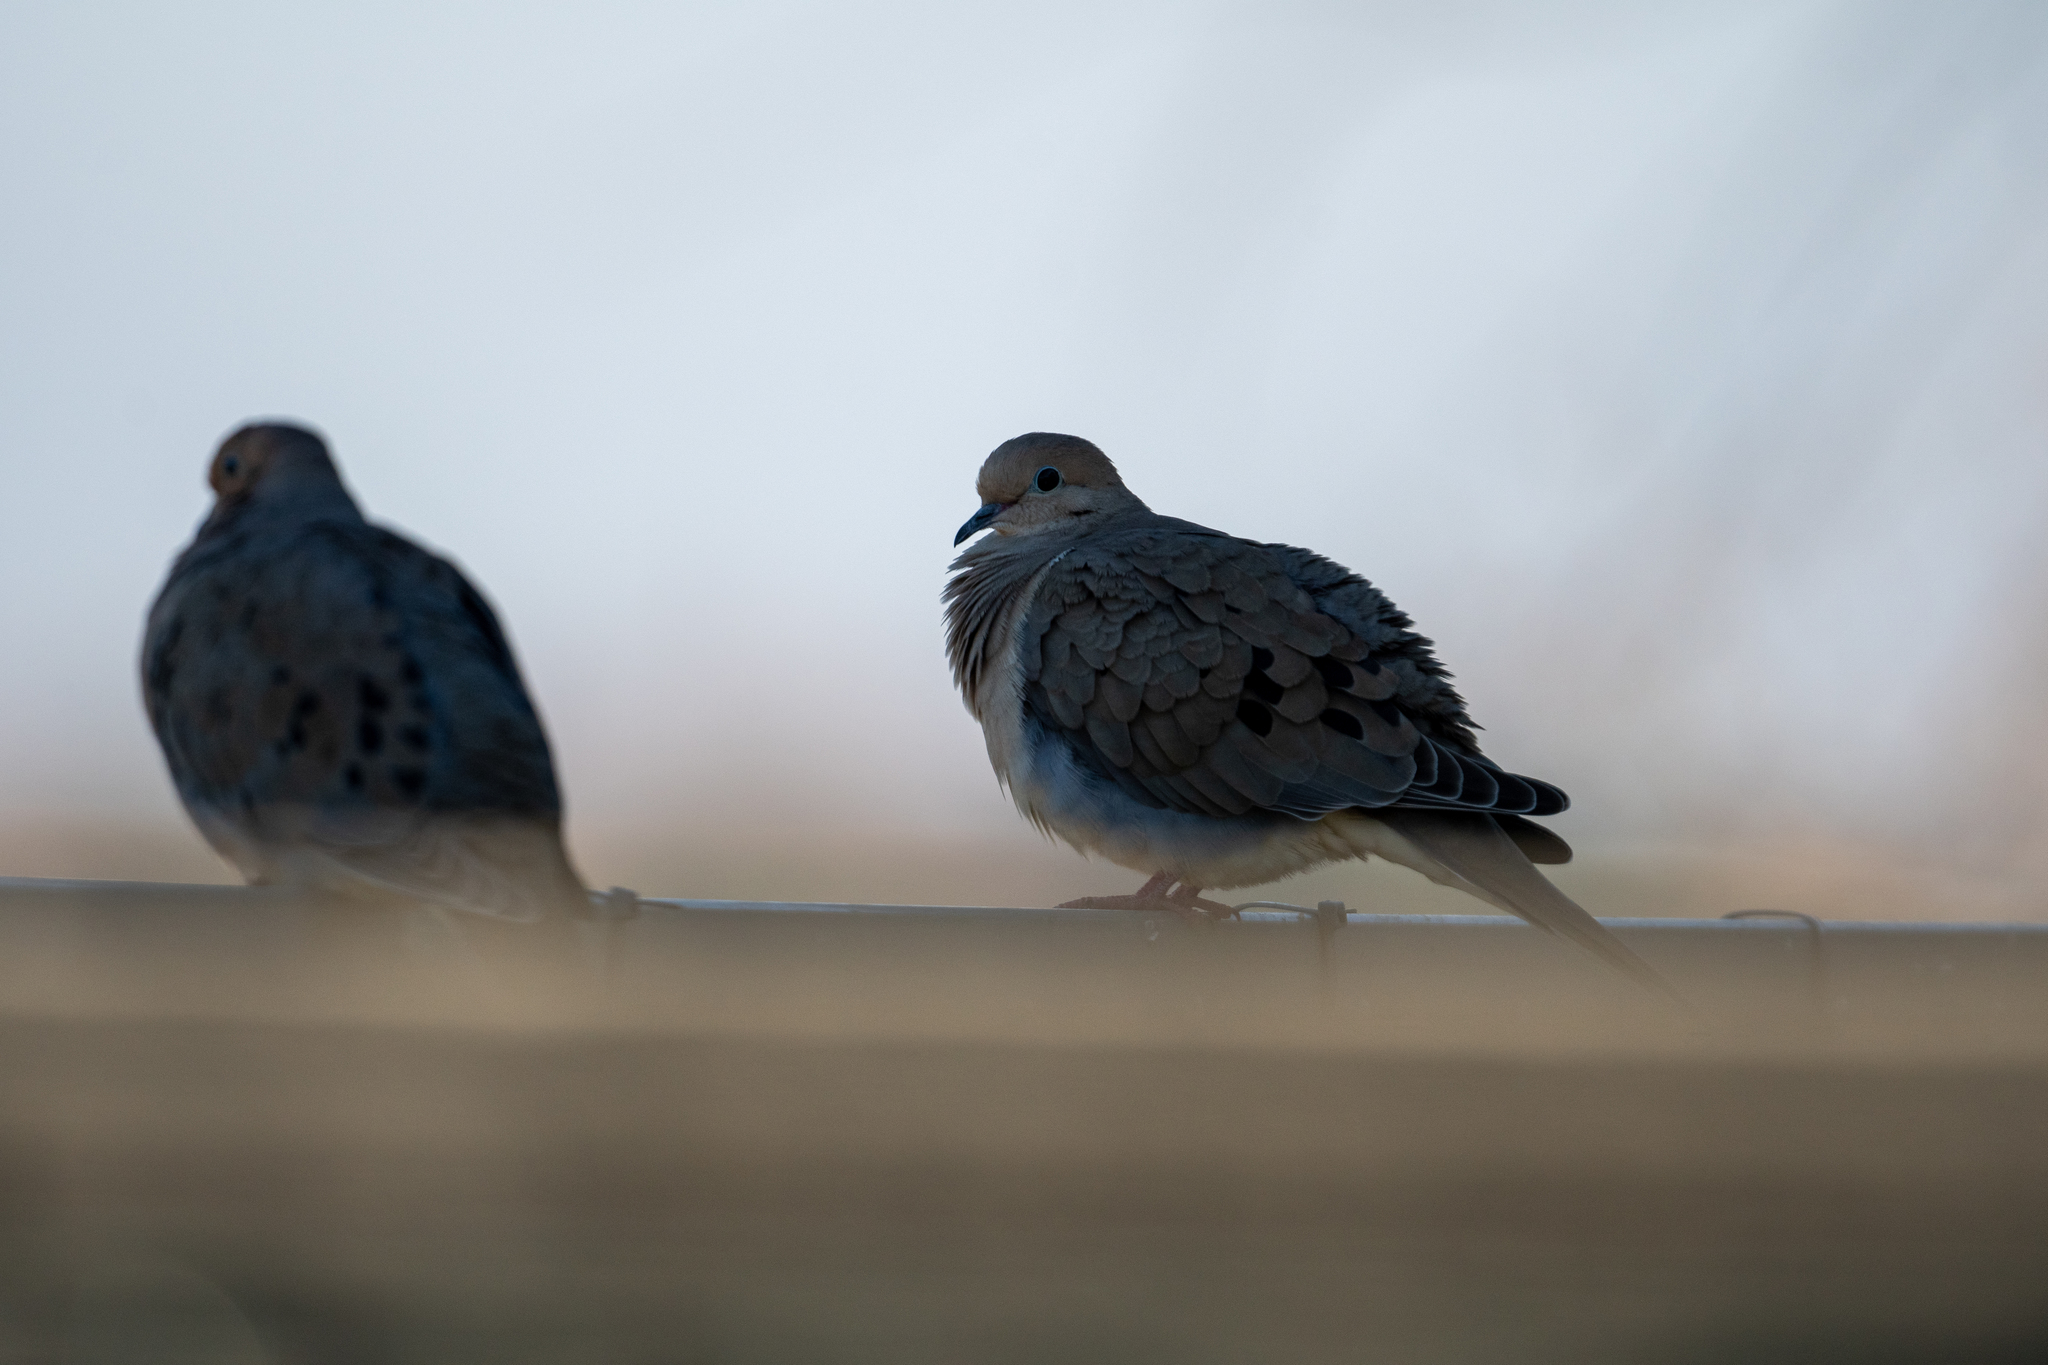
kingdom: Animalia
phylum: Chordata
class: Aves
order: Columbiformes
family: Columbidae
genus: Zenaida
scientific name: Zenaida macroura
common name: Mourning dove
